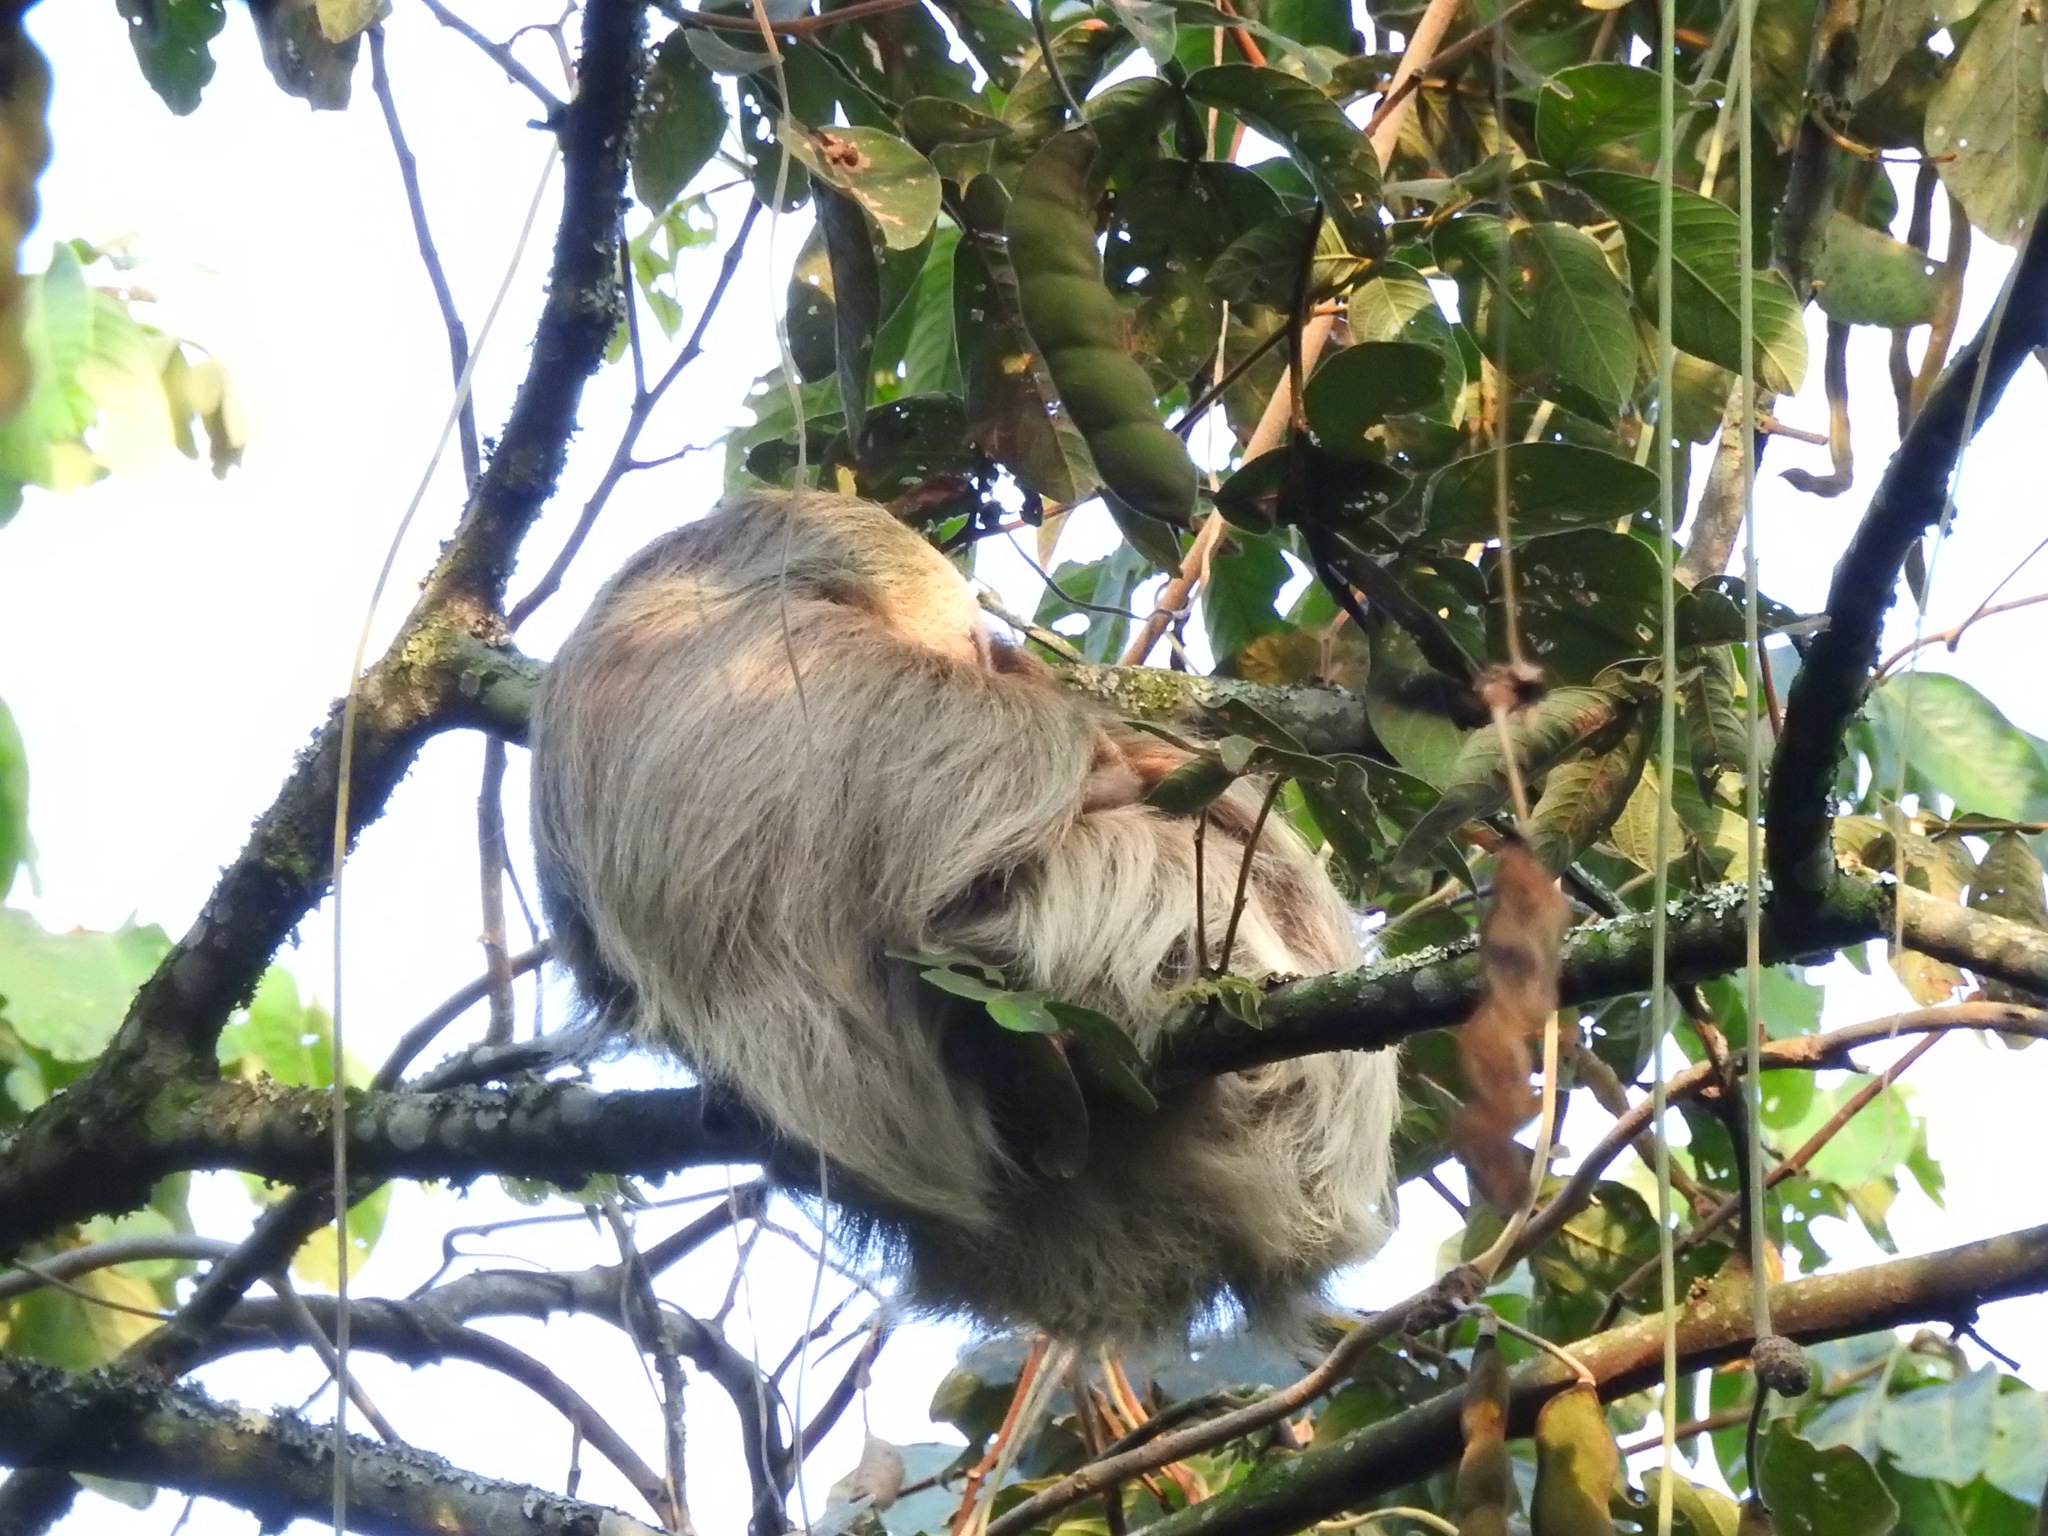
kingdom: Animalia
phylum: Chordata
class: Mammalia
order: Pilosa
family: Megalonychidae
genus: Choloepus
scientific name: Choloepus hoffmanni
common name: Hoffmann's two-toed sloth
